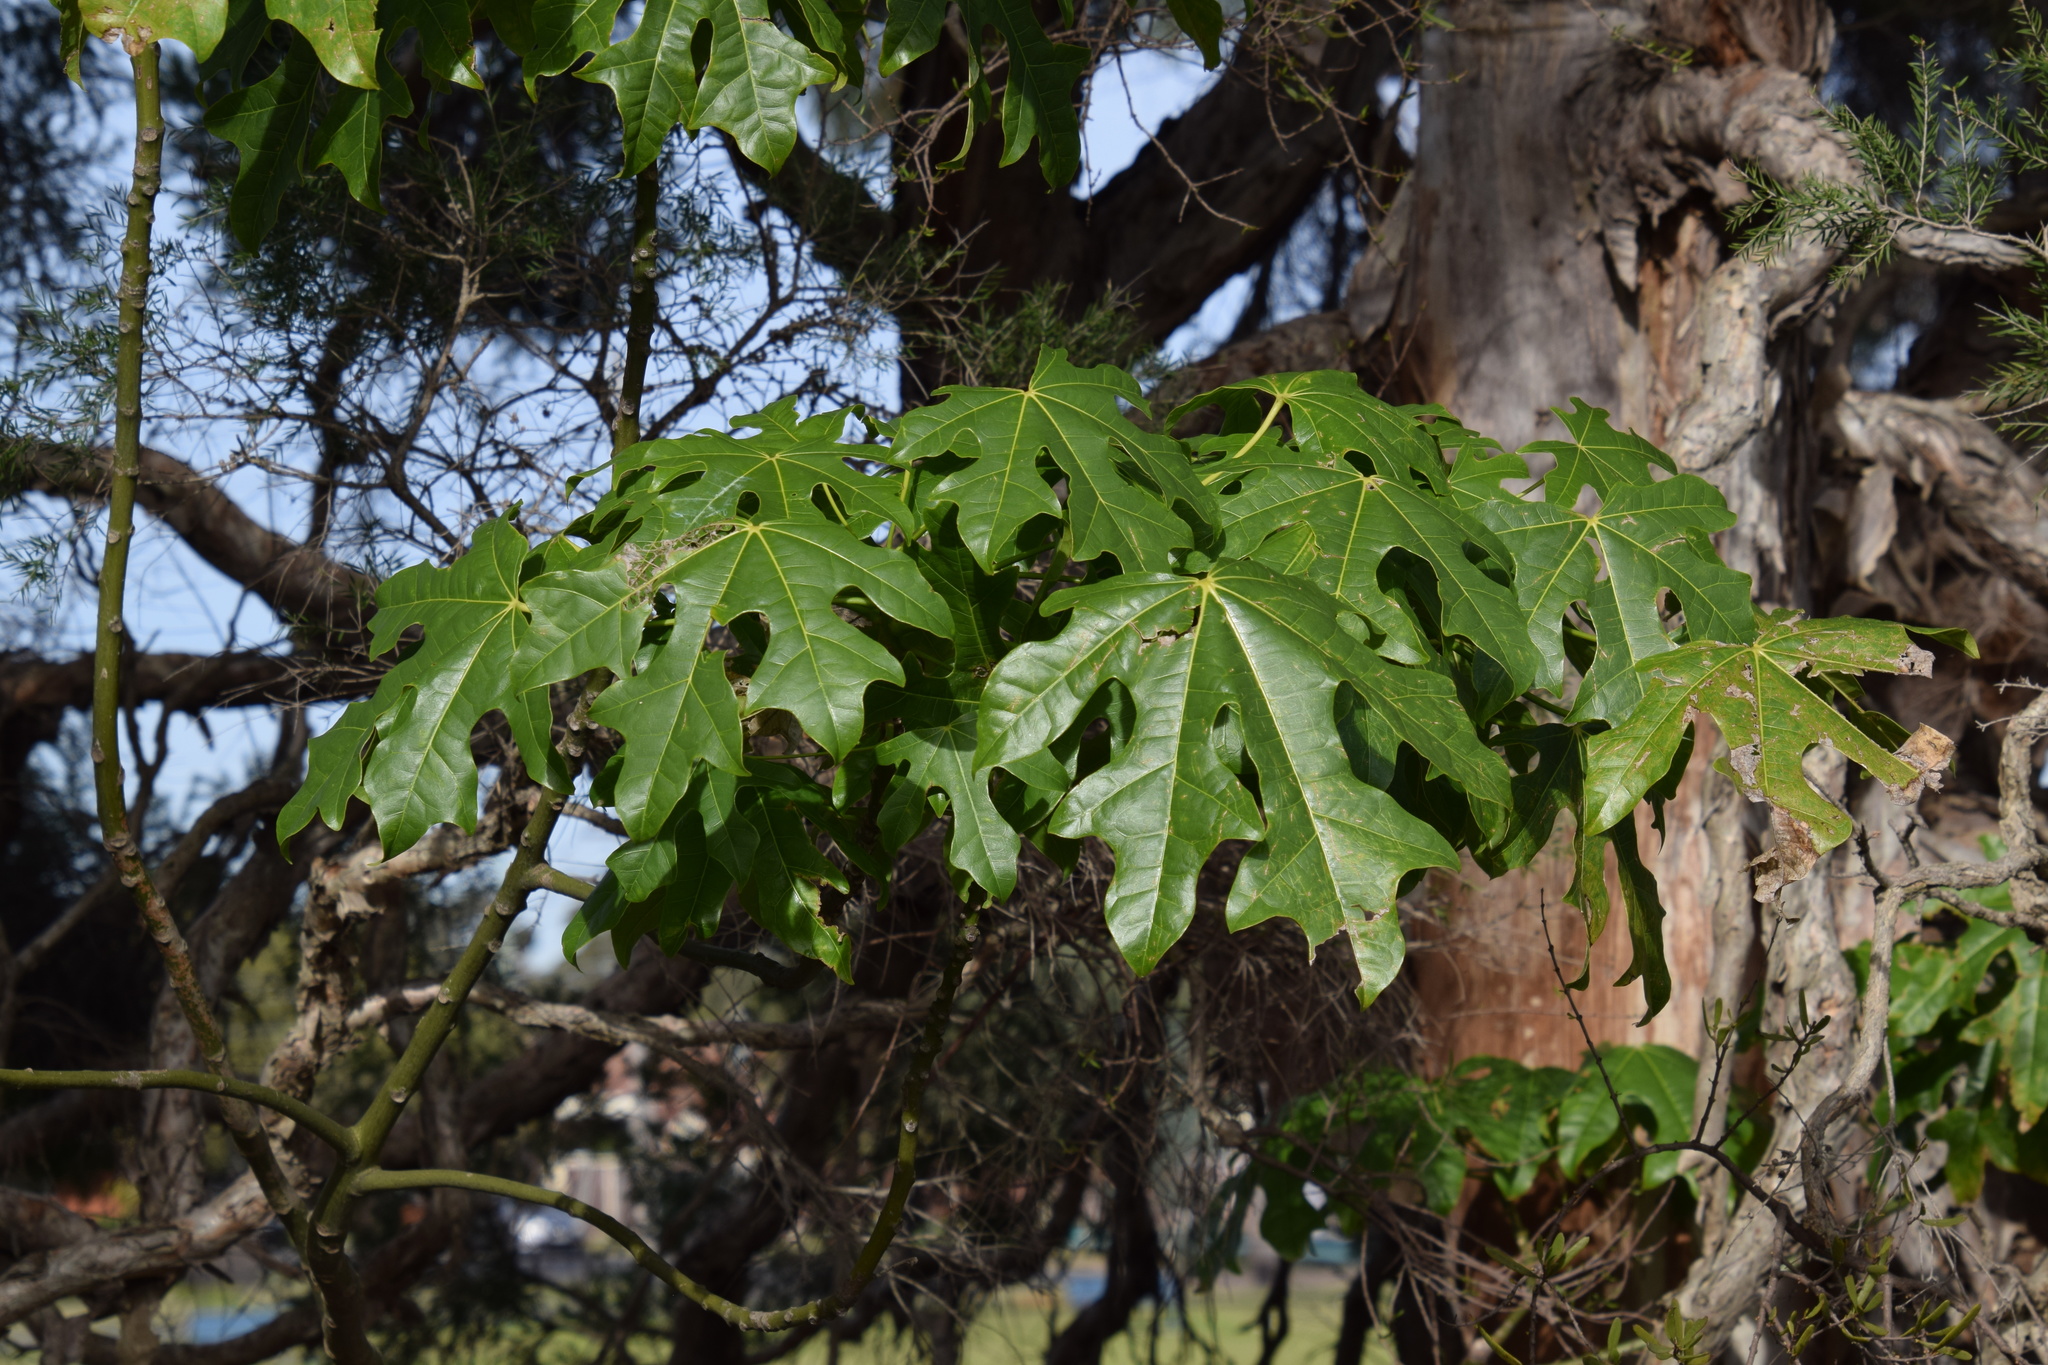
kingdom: Plantae
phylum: Tracheophyta
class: Magnoliopsida
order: Malvales
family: Malvaceae
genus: Brachychiton
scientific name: Brachychiton acerifolius
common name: Illawarra flame tree
